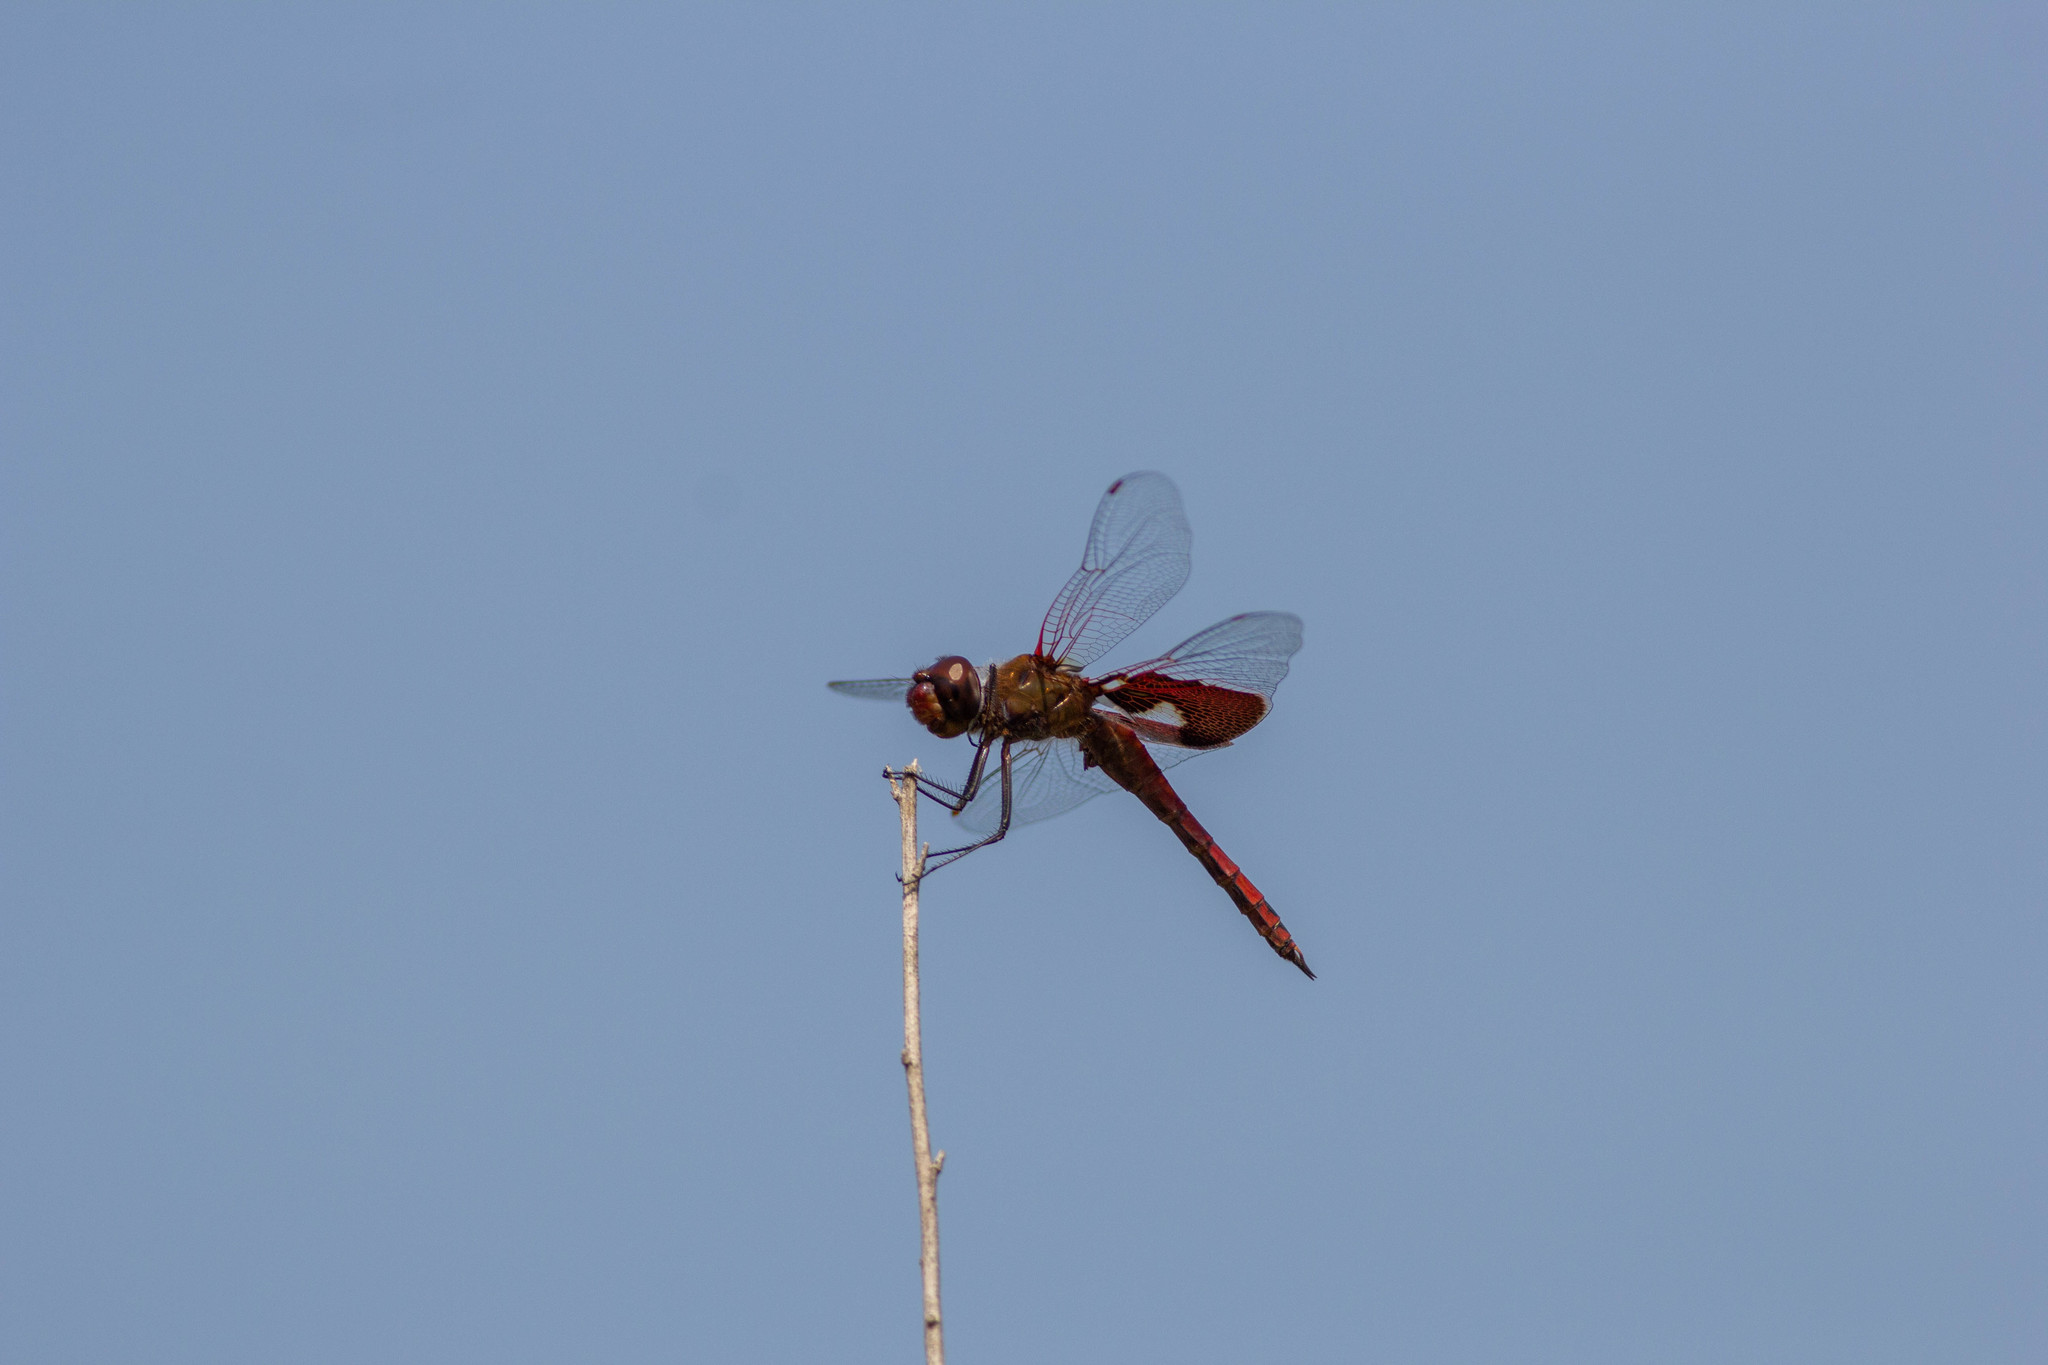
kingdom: Animalia
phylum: Arthropoda
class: Insecta
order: Odonata
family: Libellulidae
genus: Tramea
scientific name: Tramea onusta
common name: Red saddlebags
